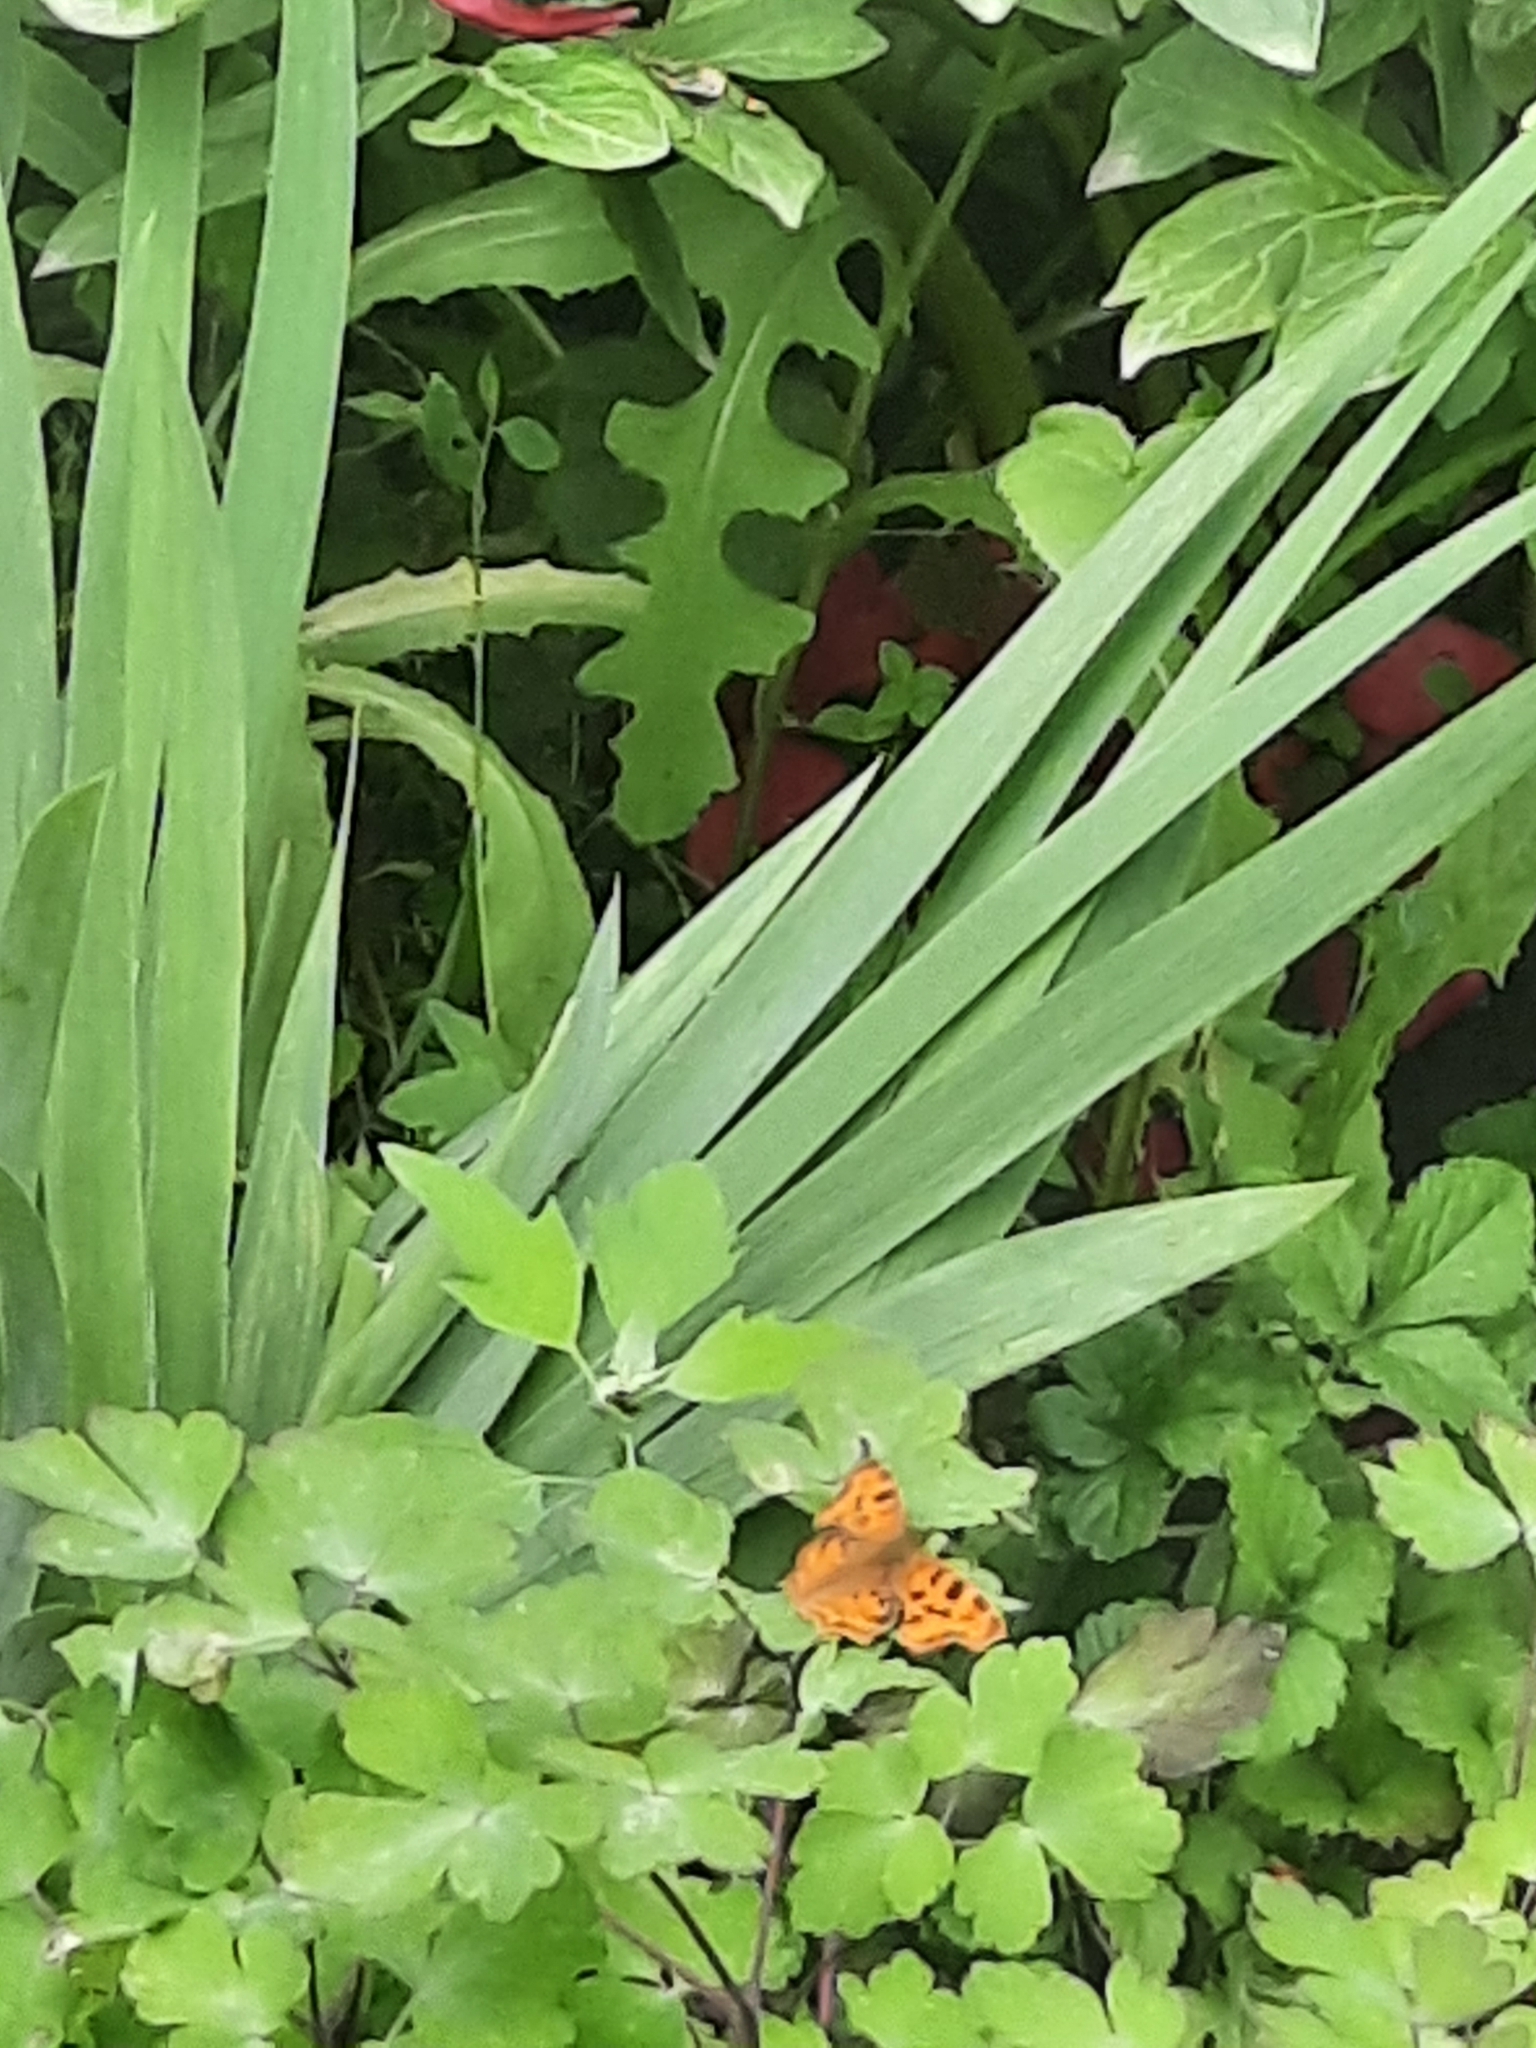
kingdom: Animalia
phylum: Arthropoda
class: Insecta
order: Lepidoptera
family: Nymphalidae
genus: Polygonia
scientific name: Polygonia c-album
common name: Comma
